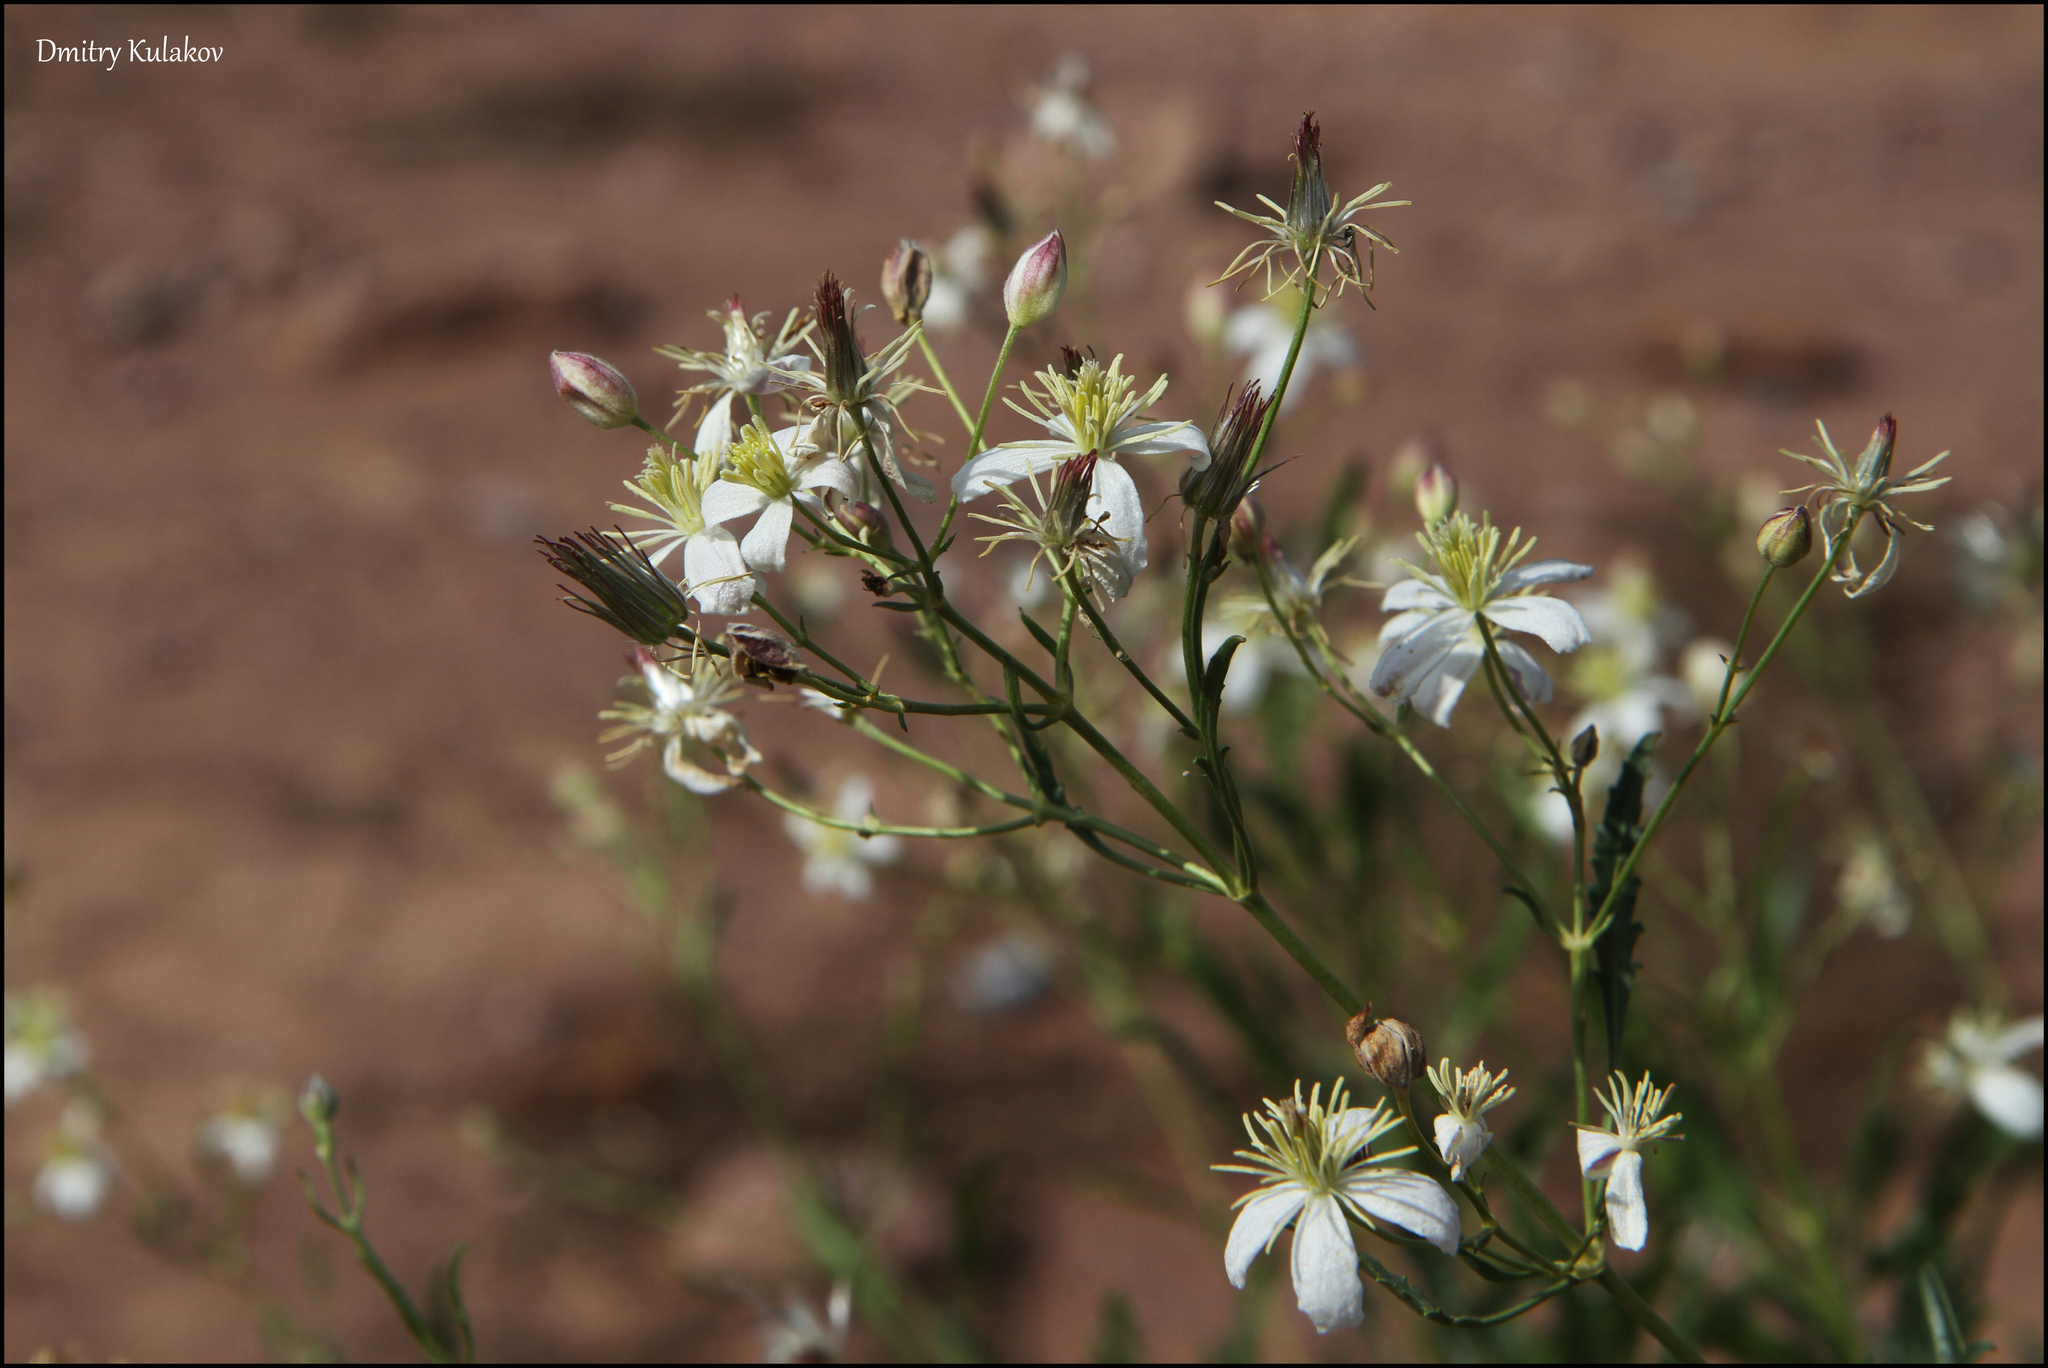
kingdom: Plantae
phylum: Tracheophyta
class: Magnoliopsida
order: Ranunculales
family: Ranunculaceae
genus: Clematis
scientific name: Clematis songorica
